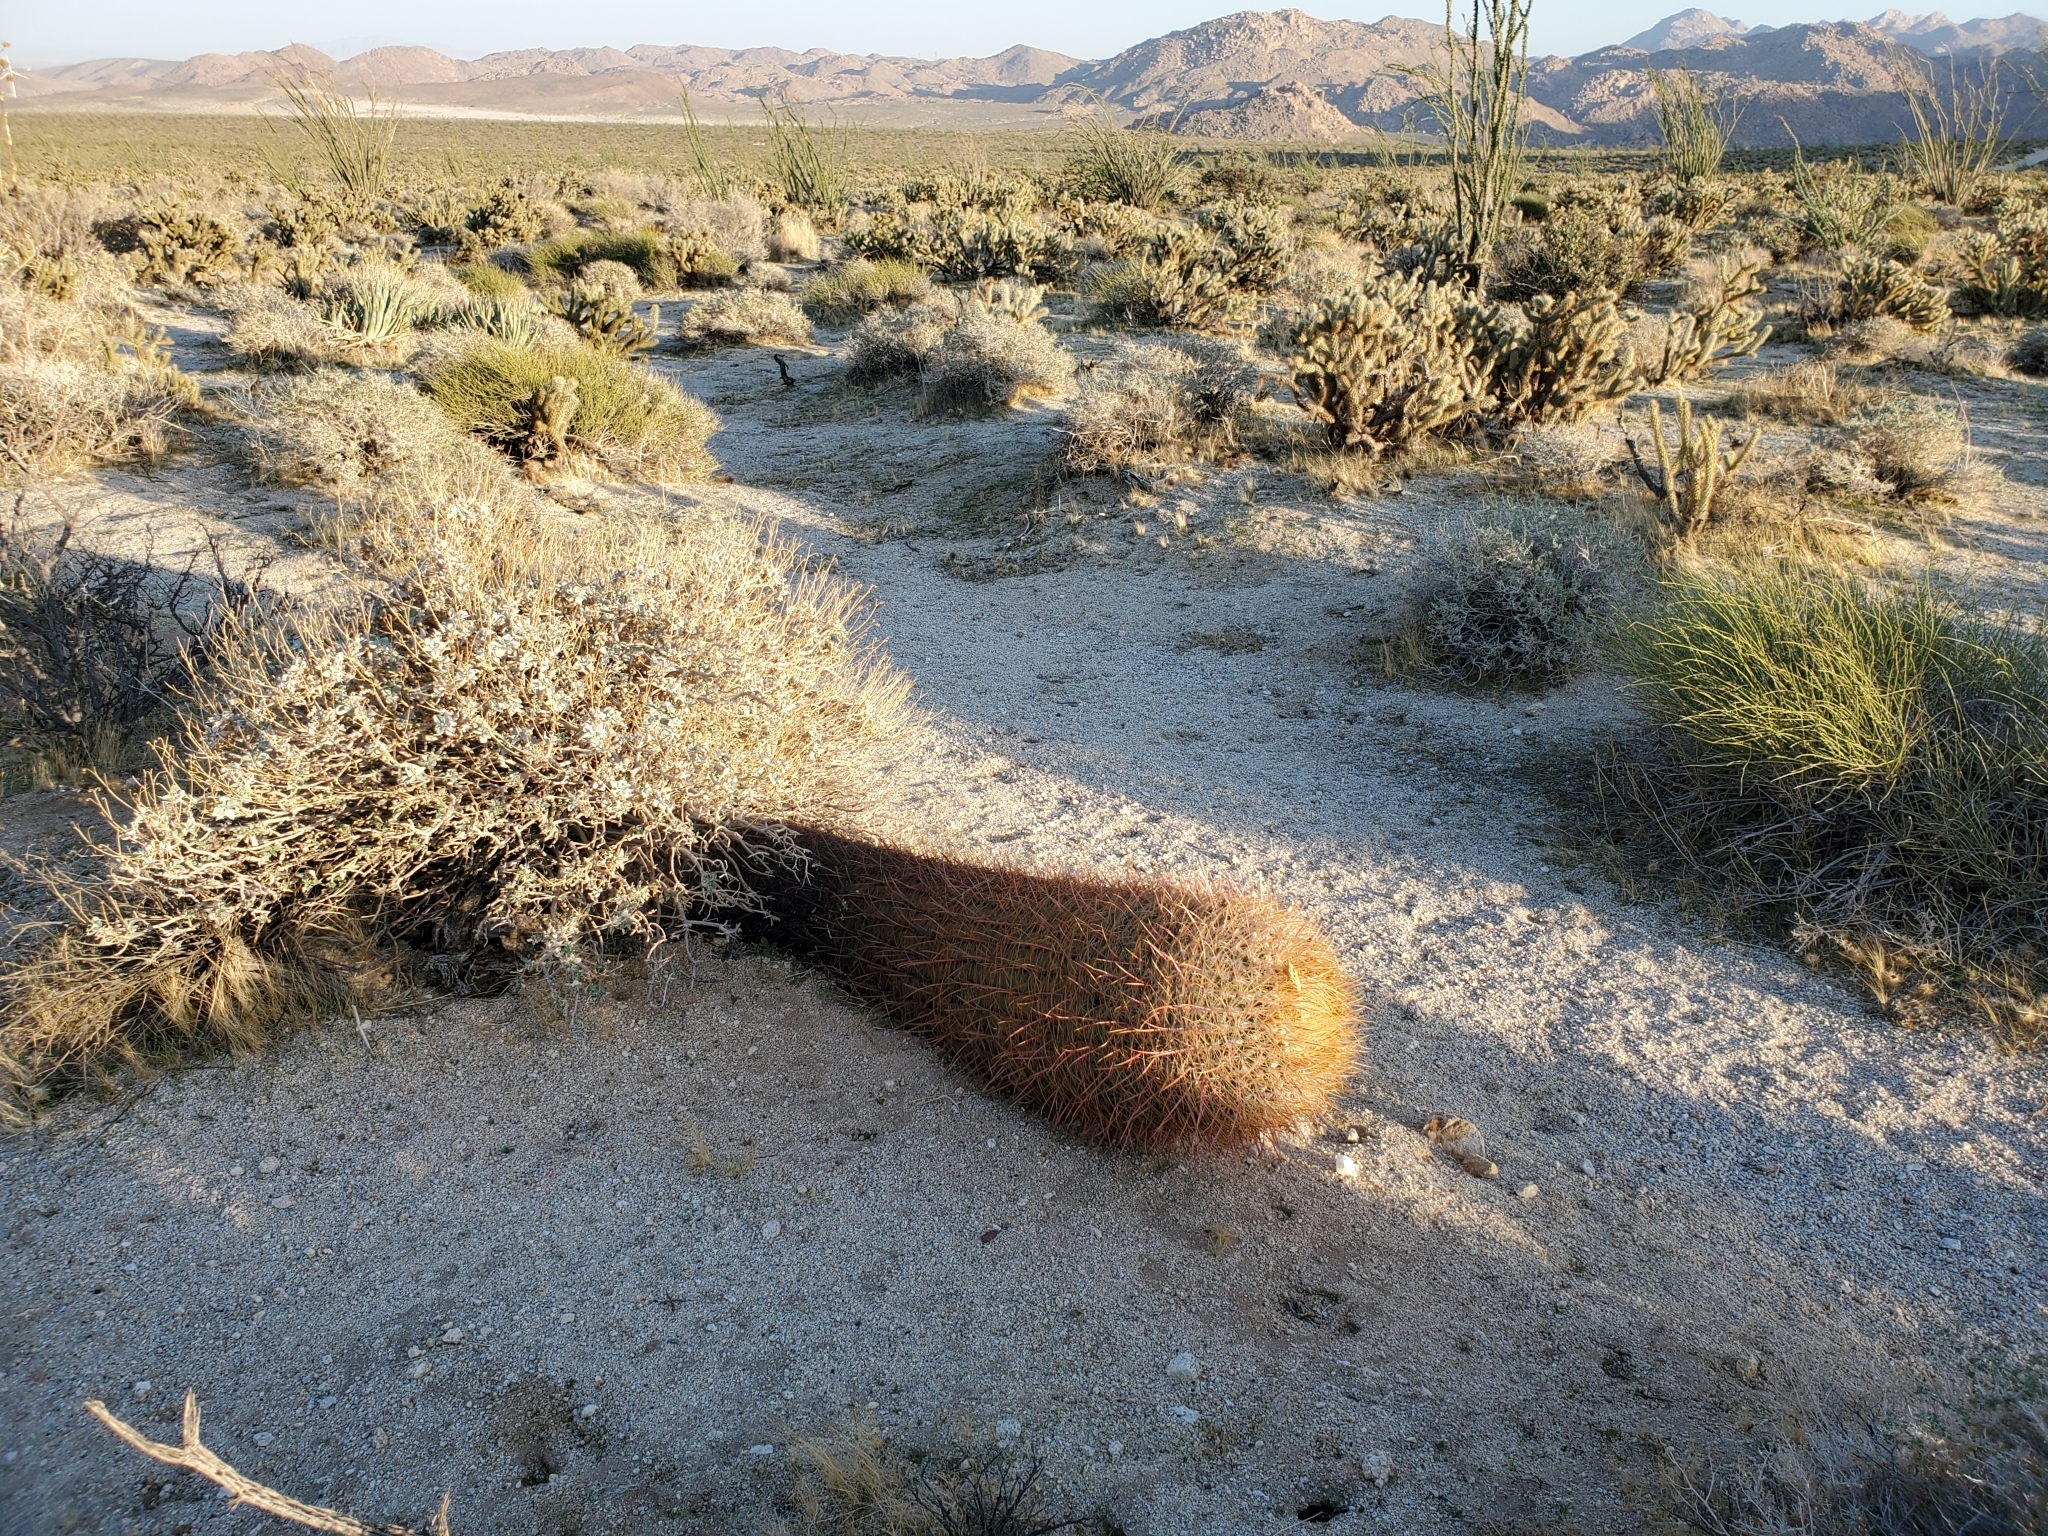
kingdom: Plantae
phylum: Tracheophyta
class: Magnoliopsida
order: Caryophyllales
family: Cactaceae
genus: Ferocactus
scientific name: Ferocactus cylindraceus
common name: California barrel cactus
